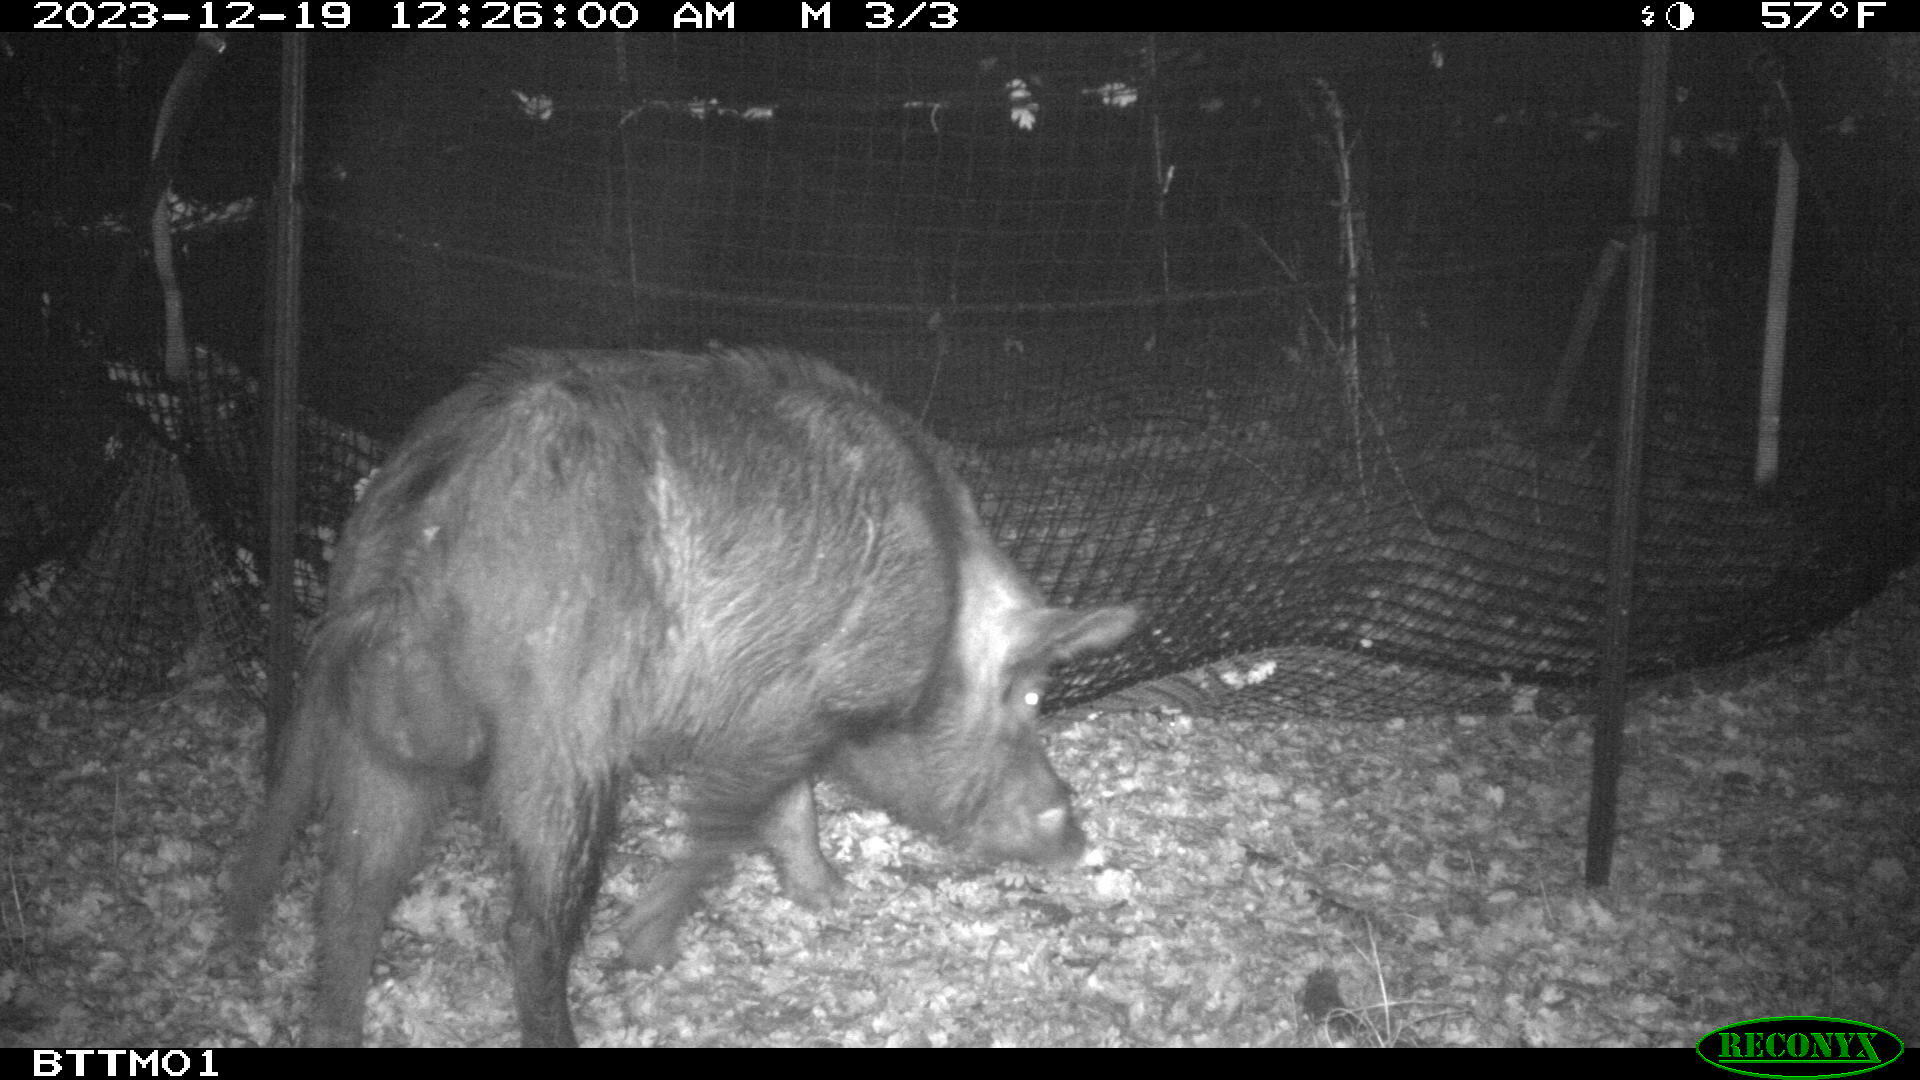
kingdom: Animalia
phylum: Chordata
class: Mammalia
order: Artiodactyla
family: Suidae
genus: Sus
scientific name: Sus scrofa
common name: Wild boar
